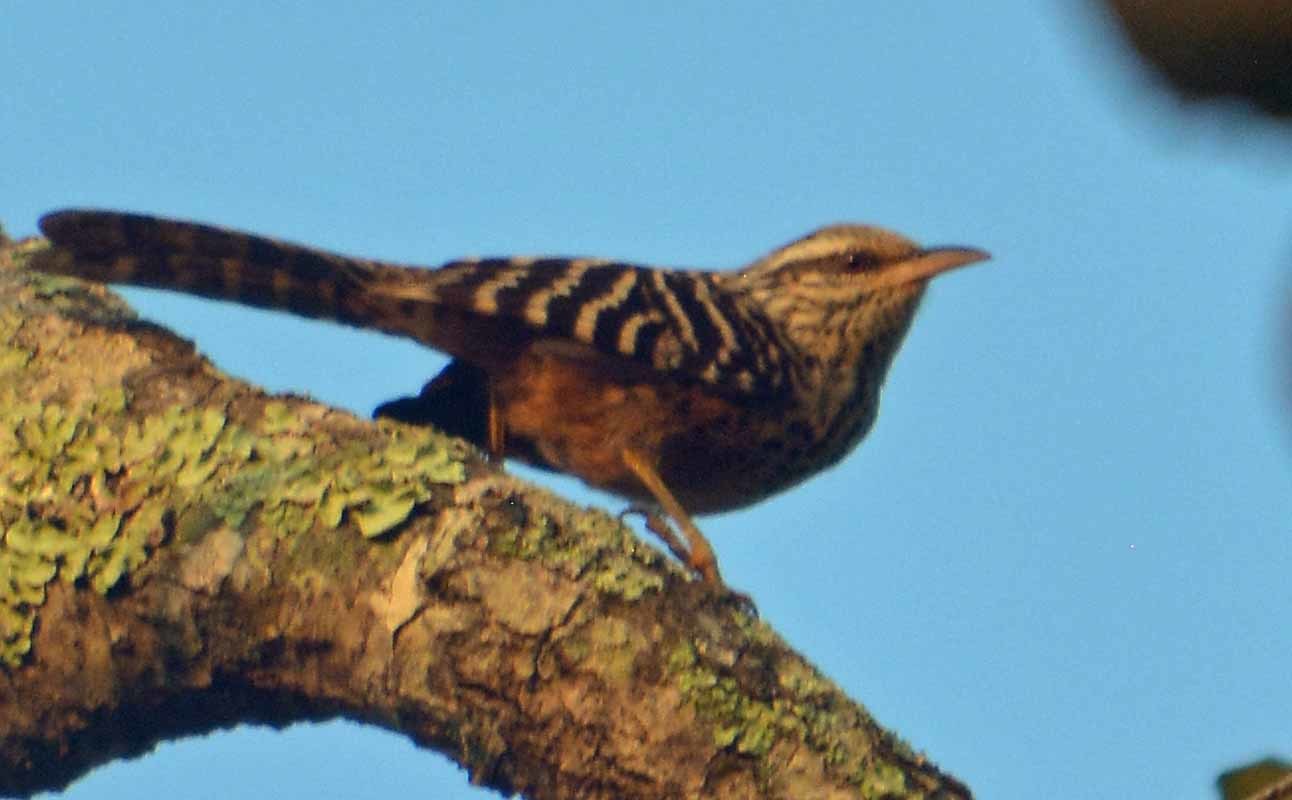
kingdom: Animalia
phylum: Chordata
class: Aves
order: Passeriformes
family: Troglodytidae
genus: Campylorhynchus
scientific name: Campylorhynchus zonatus
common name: Band-backed wren
